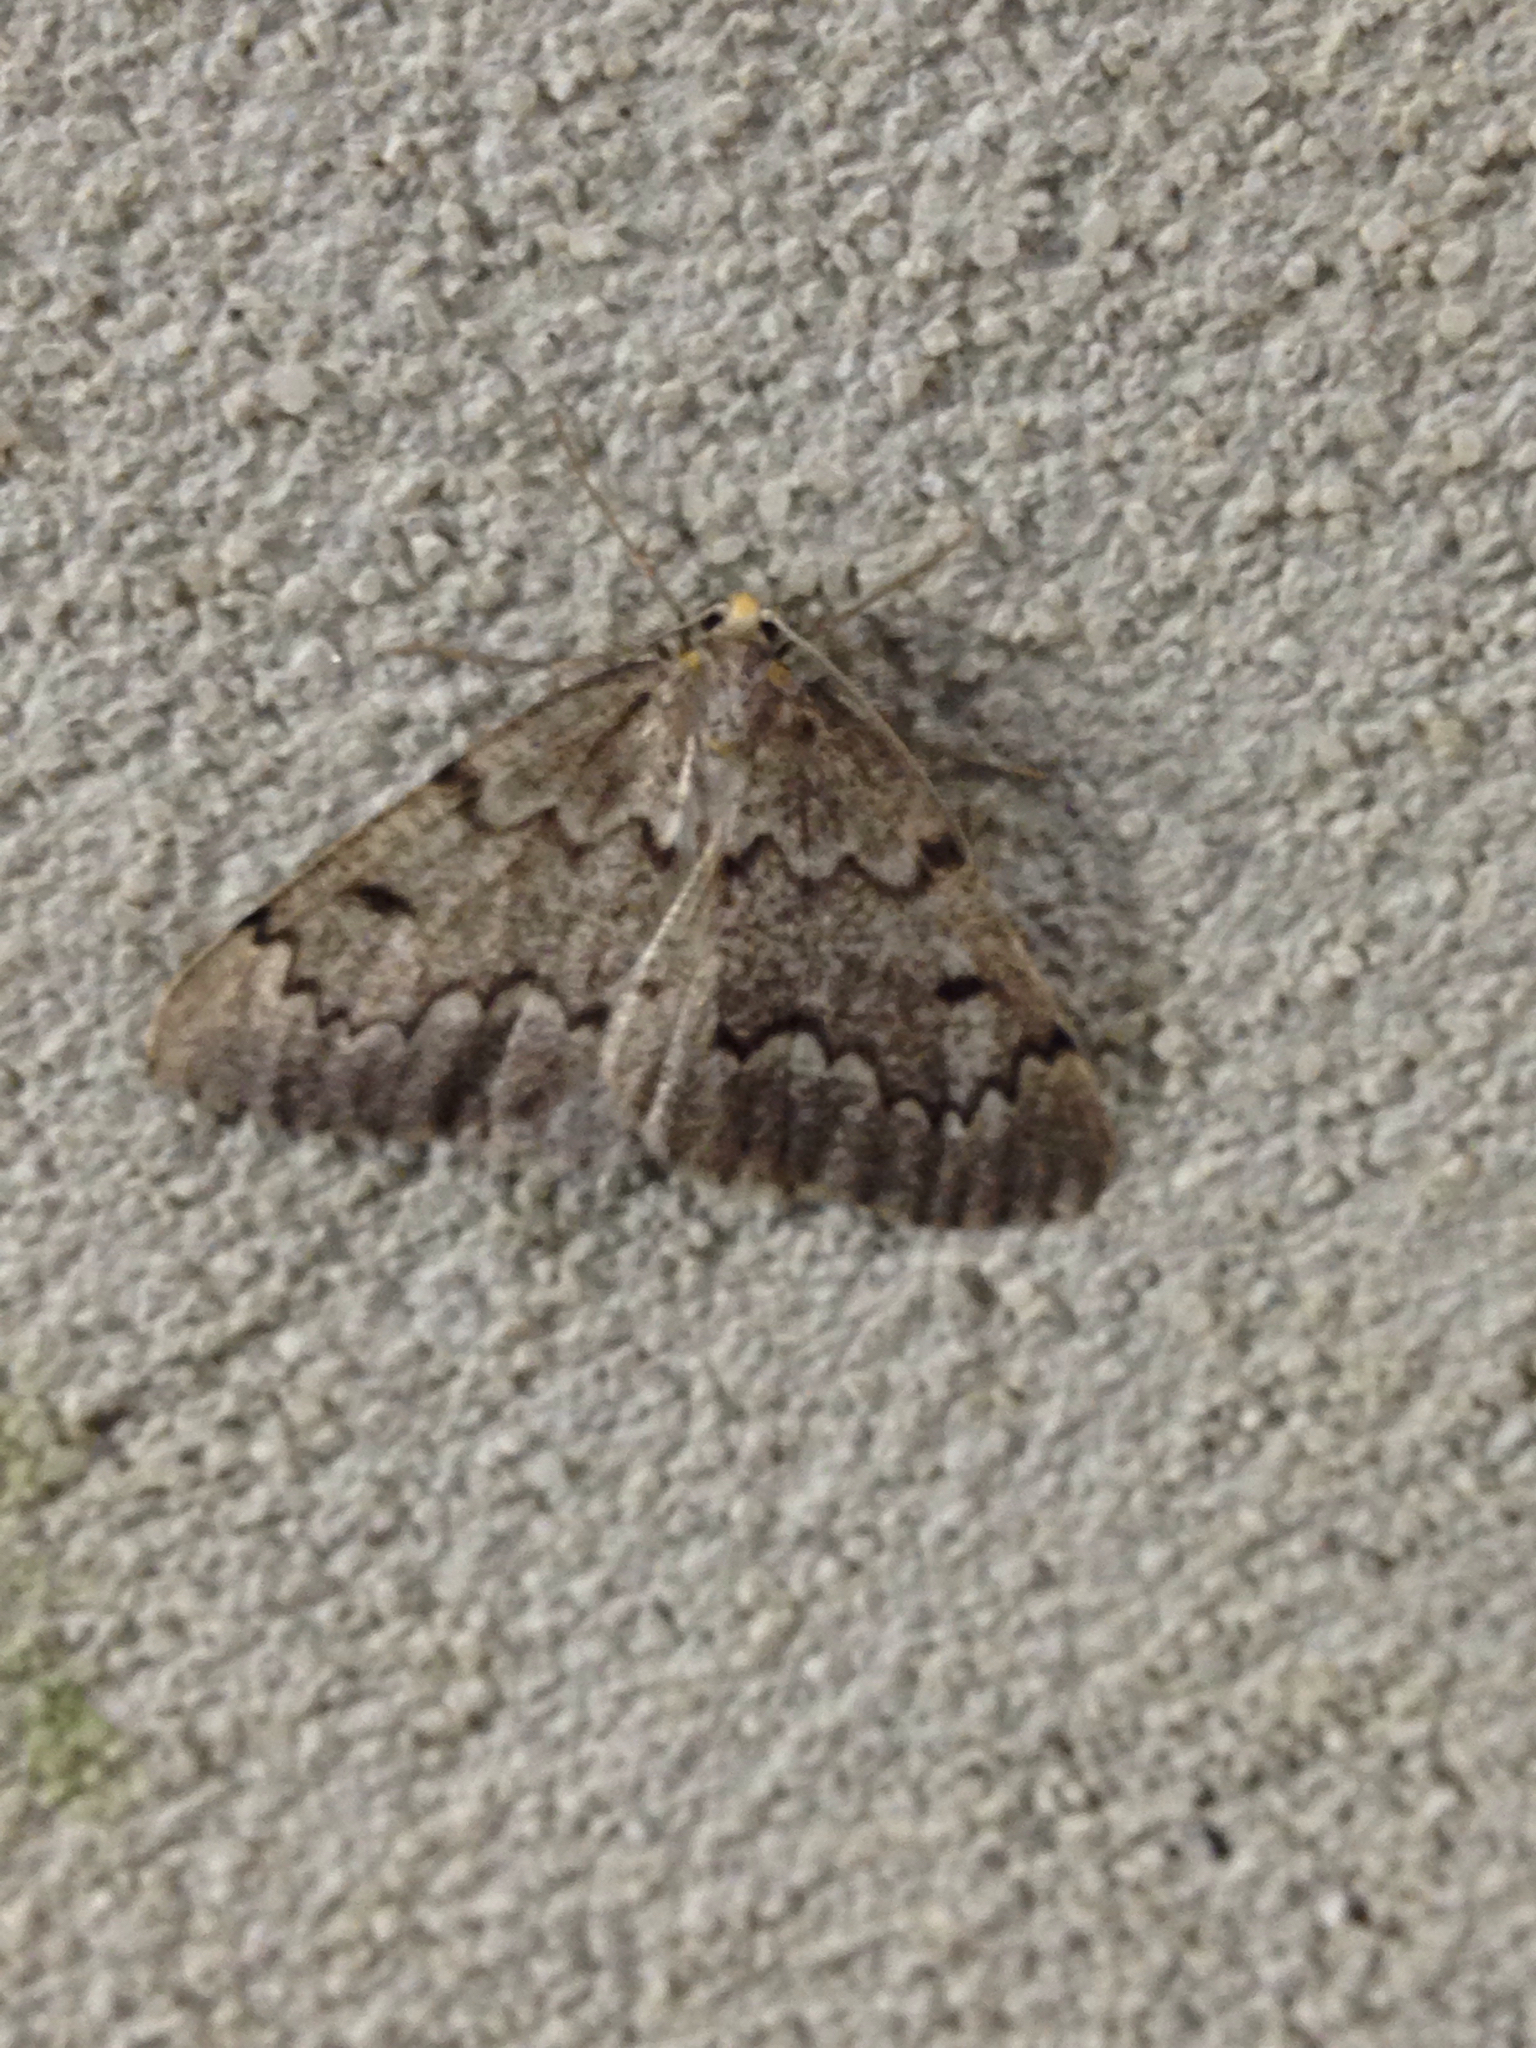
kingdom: Animalia
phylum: Arthropoda
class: Insecta
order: Lepidoptera
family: Geometridae
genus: Nepytia
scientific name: Nepytia canosaria
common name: False hemlock looper
